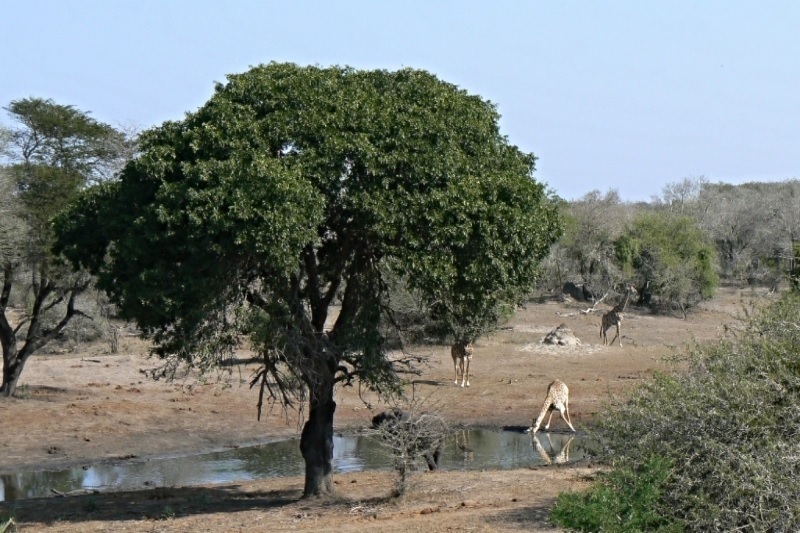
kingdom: Plantae
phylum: Tracheophyta
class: Magnoliopsida
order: Fabales
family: Fabaceae
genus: Schotia
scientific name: Schotia brachypetala
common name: Weeping boer-bean
